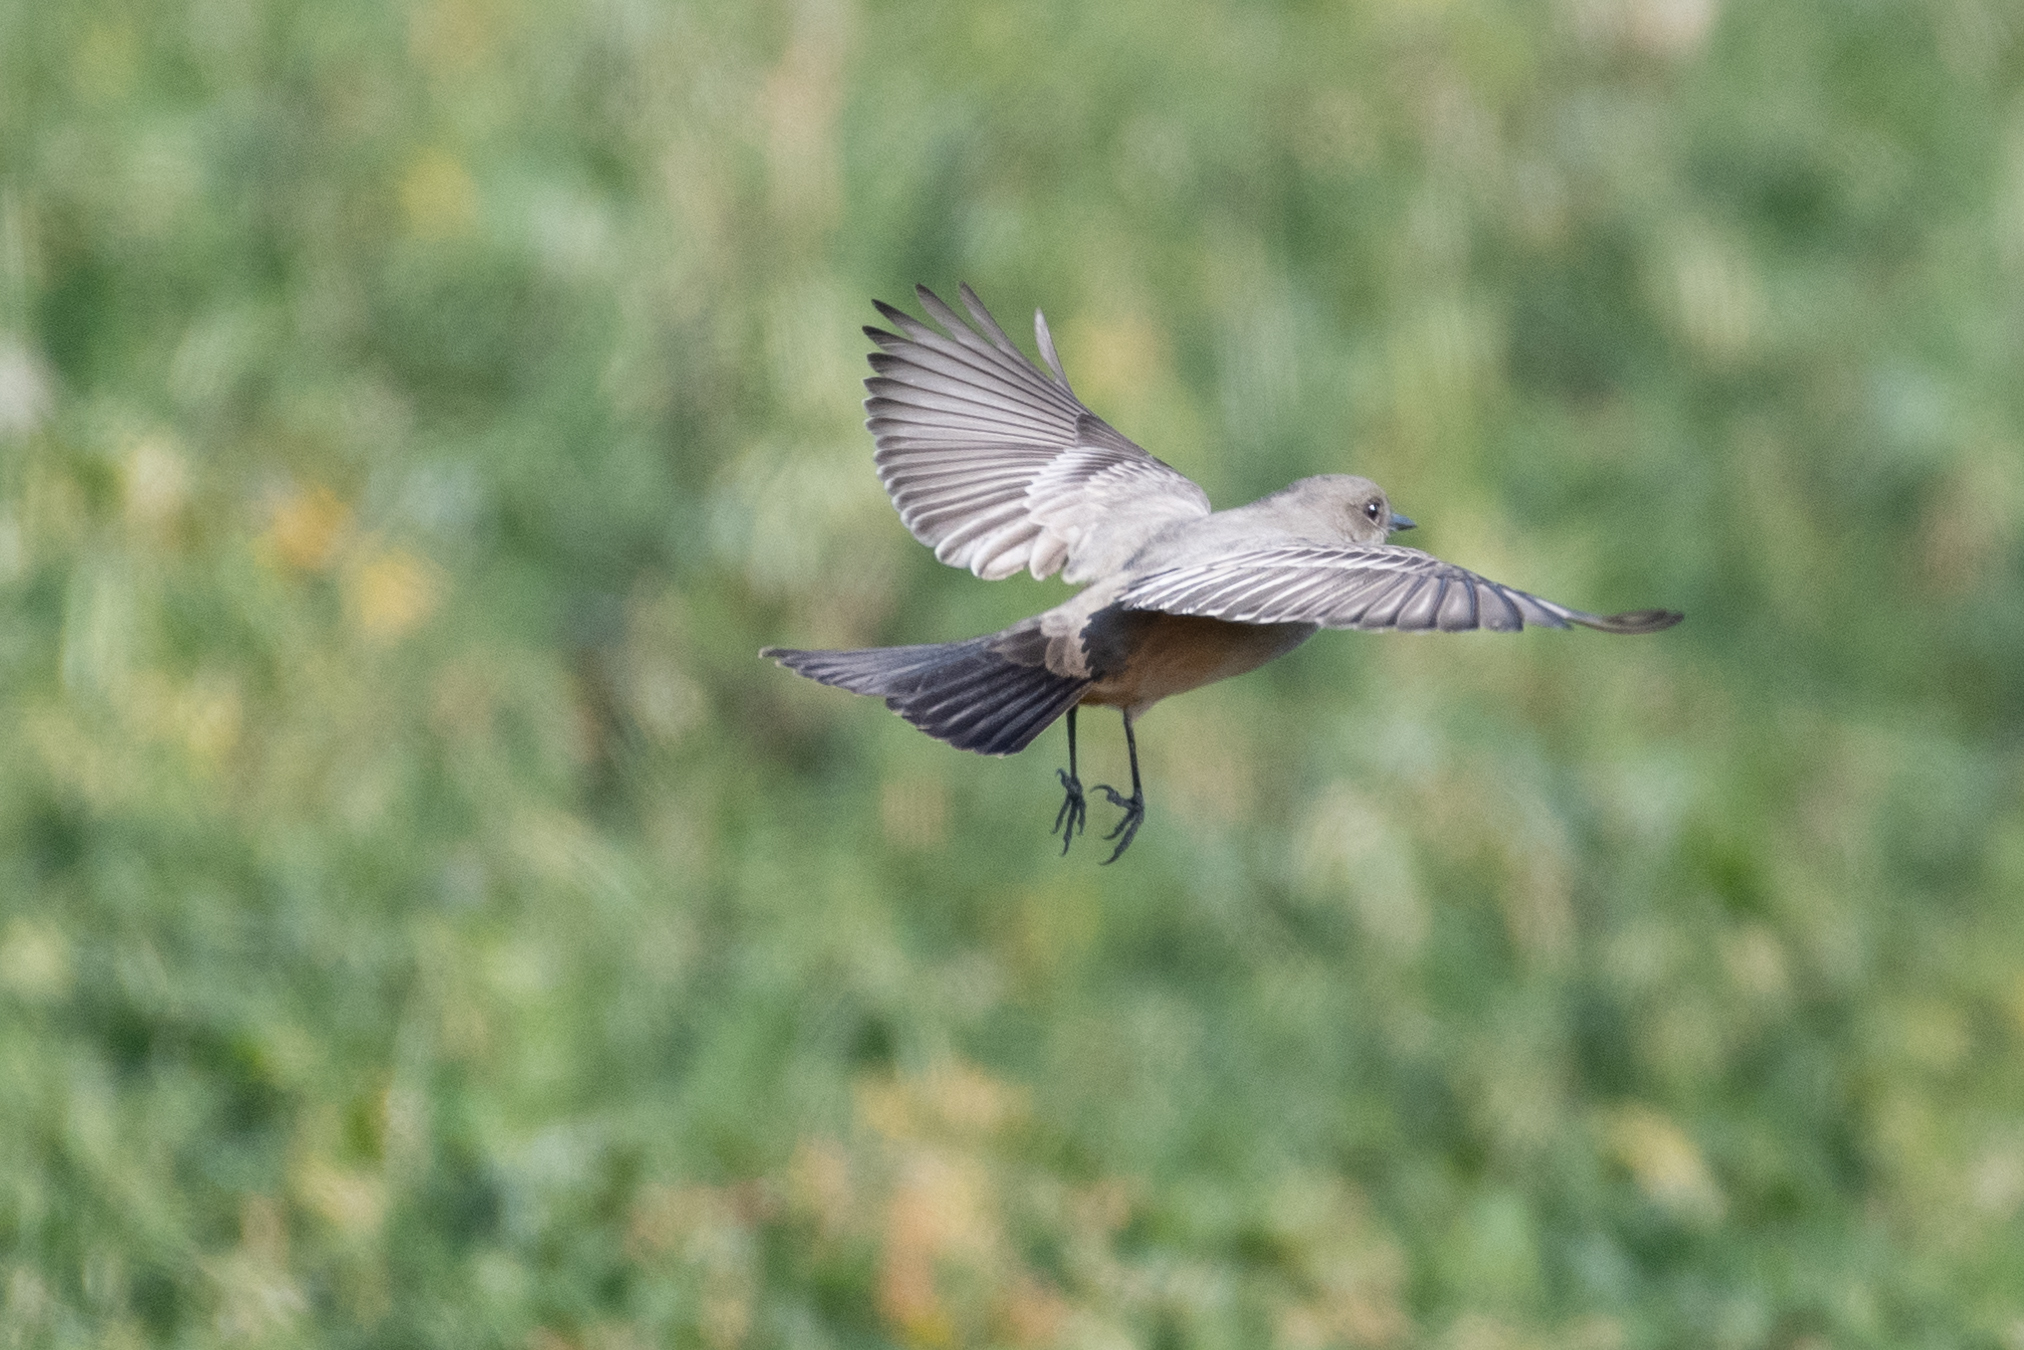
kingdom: Animalia
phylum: Chordata
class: Aves
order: Passeriformes
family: Tyrannidae
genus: Sayornis
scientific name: Sayornis saya
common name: Say's phoebe
